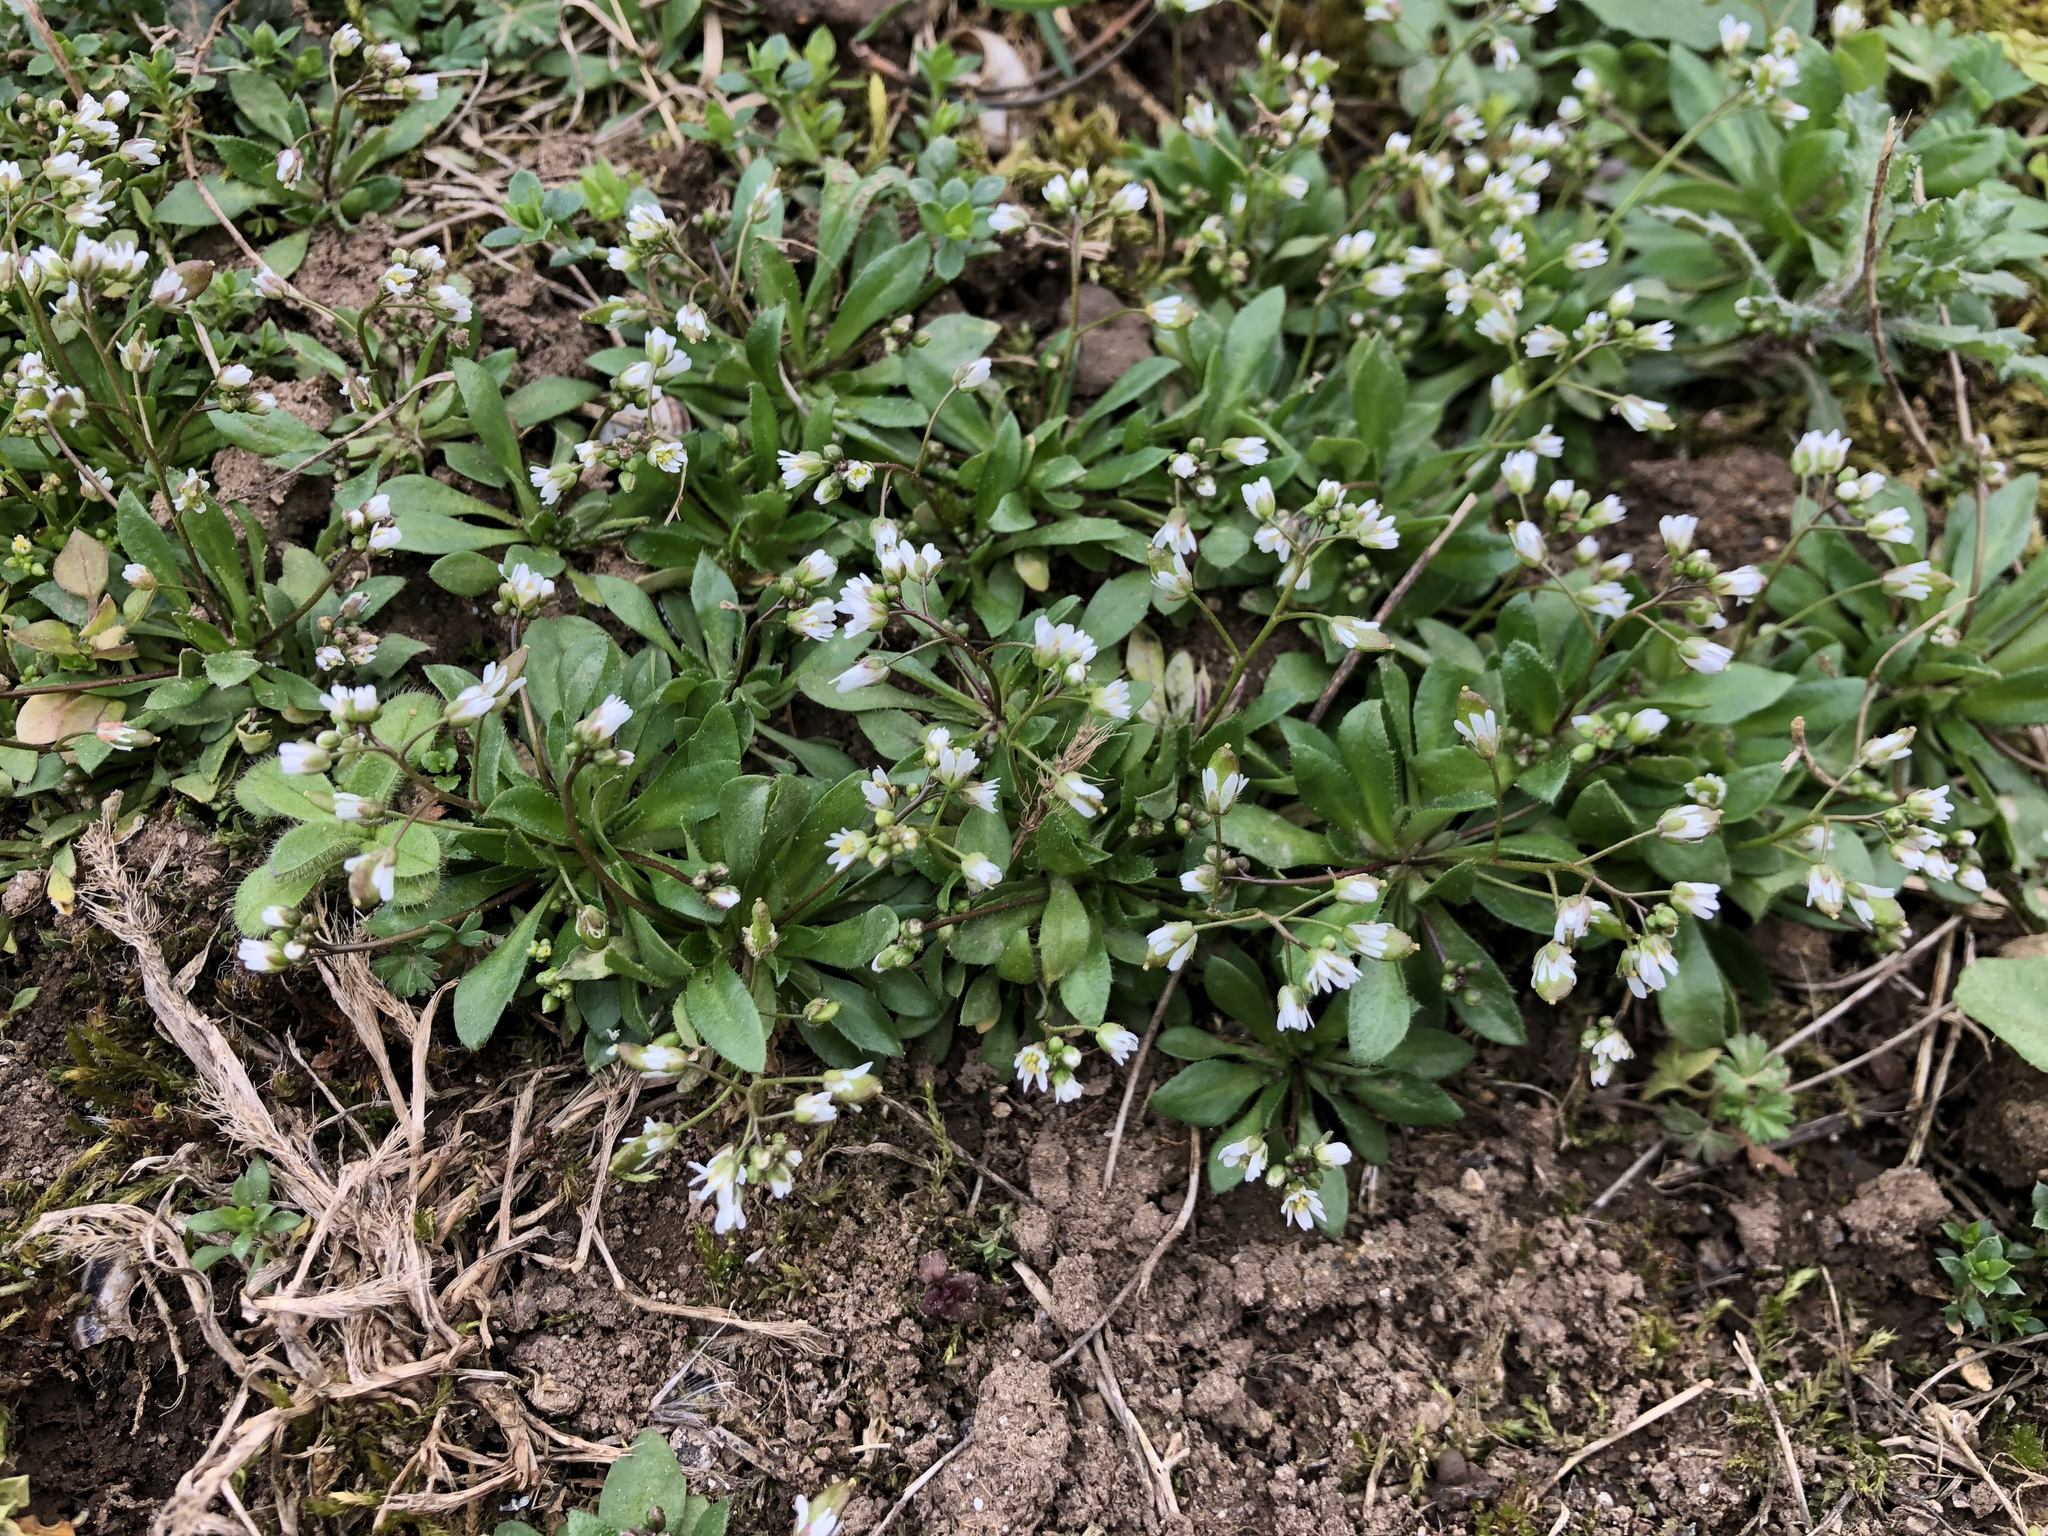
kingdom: Plantae
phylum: Tracheophyta
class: Magnoliopsida
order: Brassicales
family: Brassicaceae
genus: Draba
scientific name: Draba verna
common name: Spring draba
